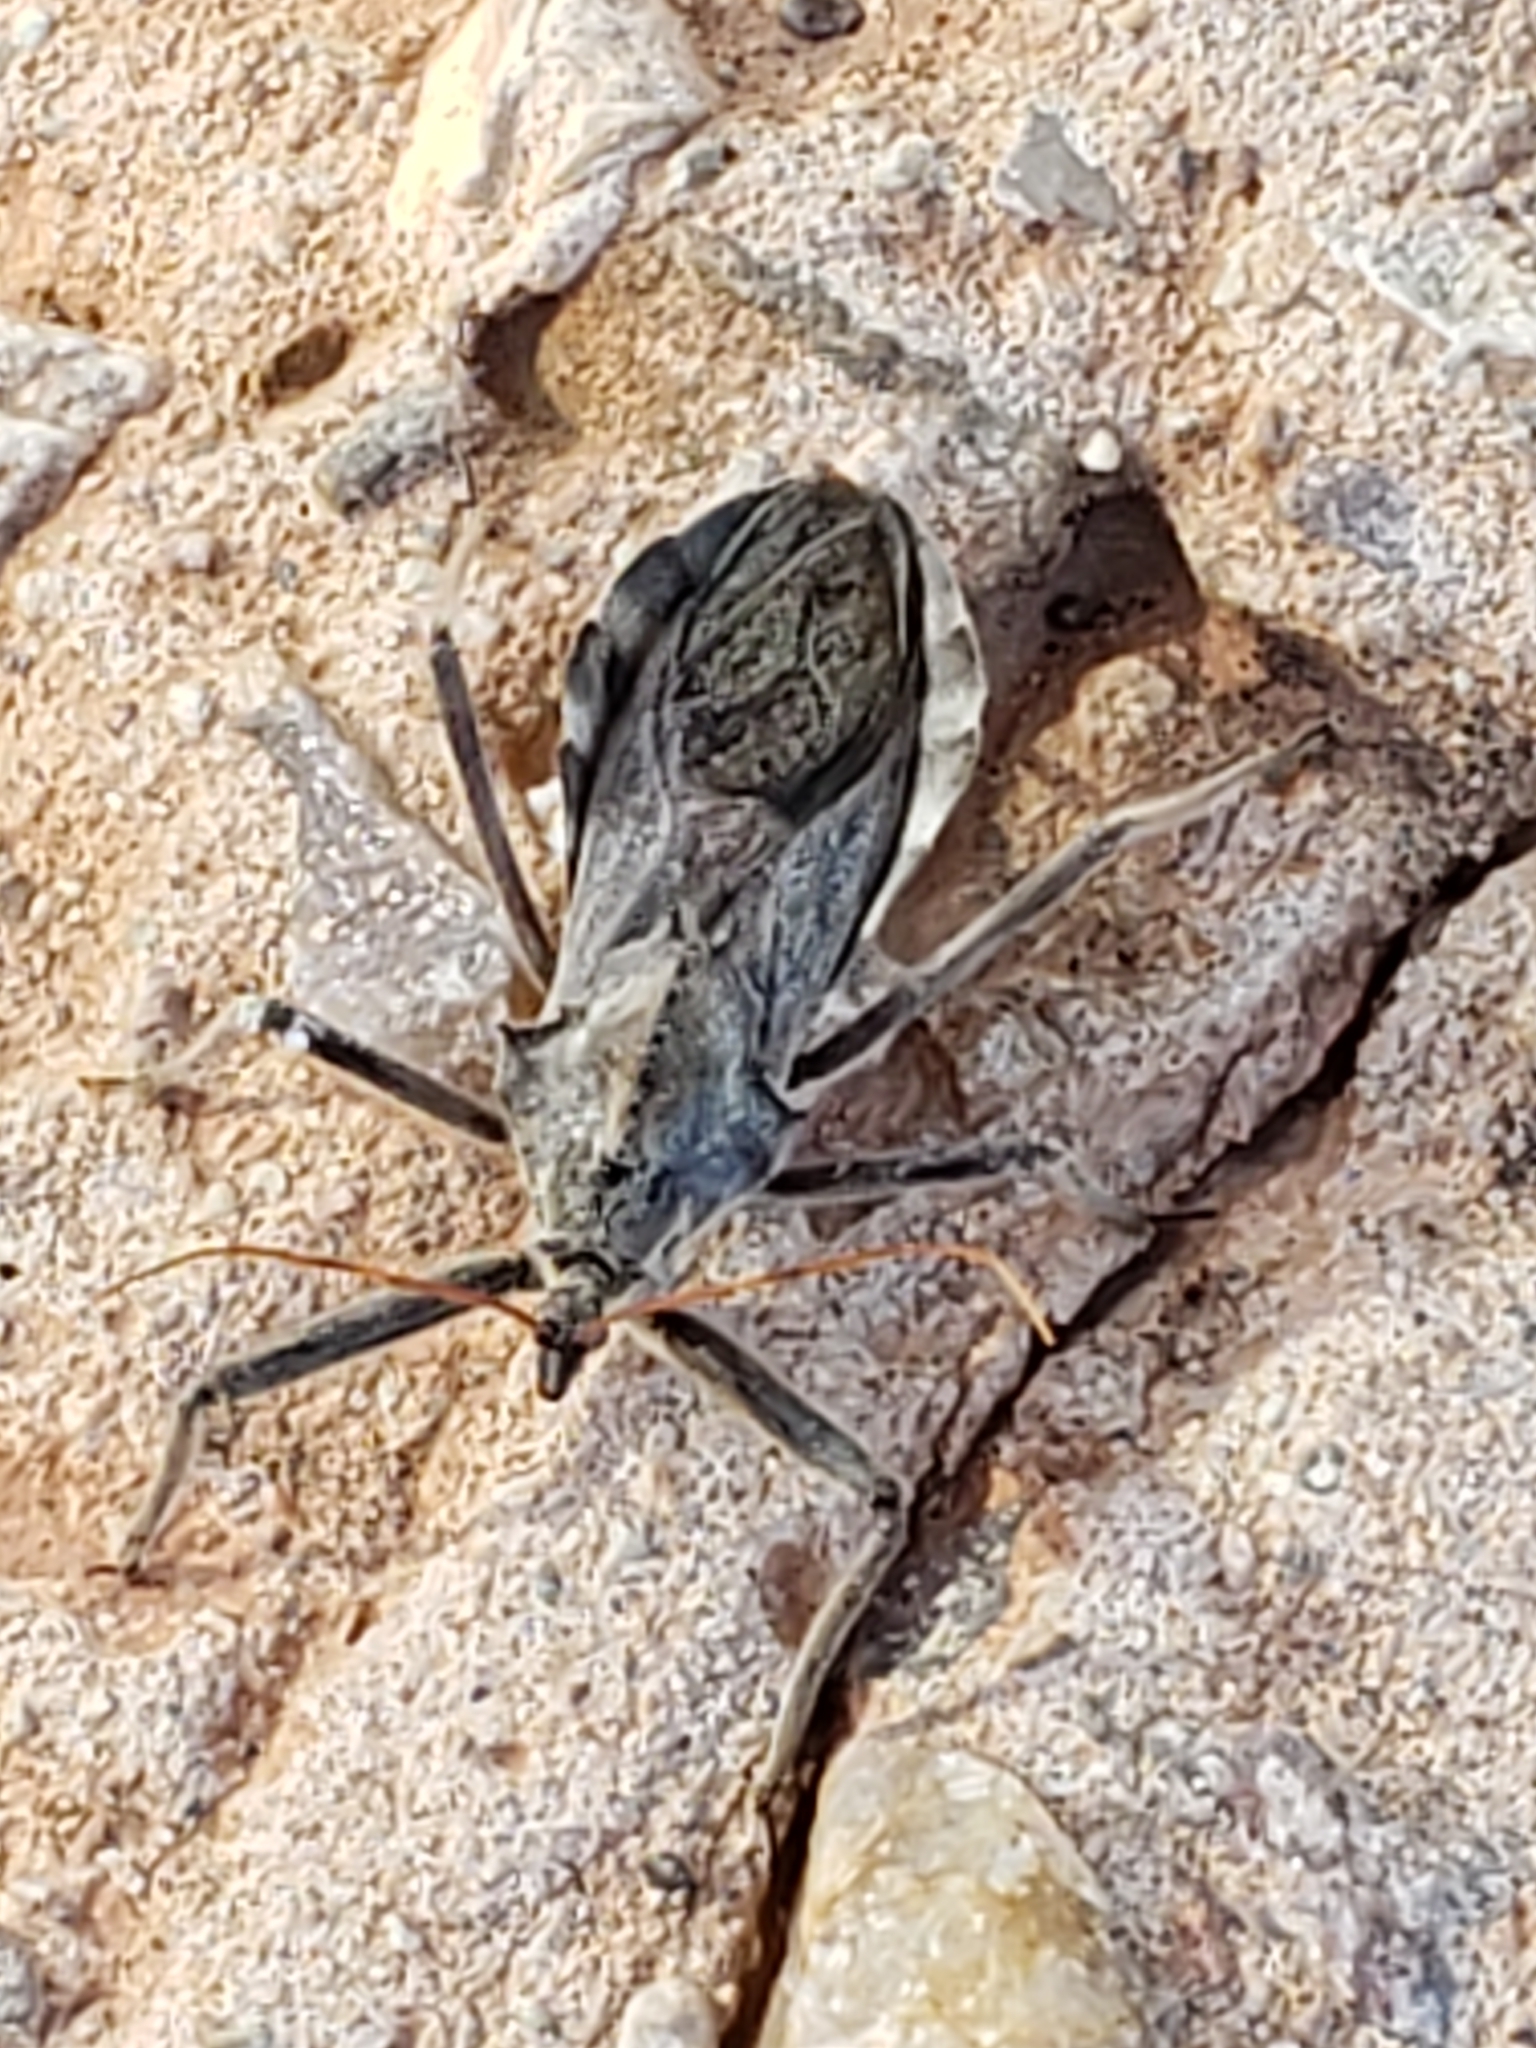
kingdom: Animalia
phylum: Arthropoda
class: Insecta
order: Hemiptera
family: Reduviidae
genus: Arilus
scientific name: Arilus cristatus
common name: North american wheel bug
